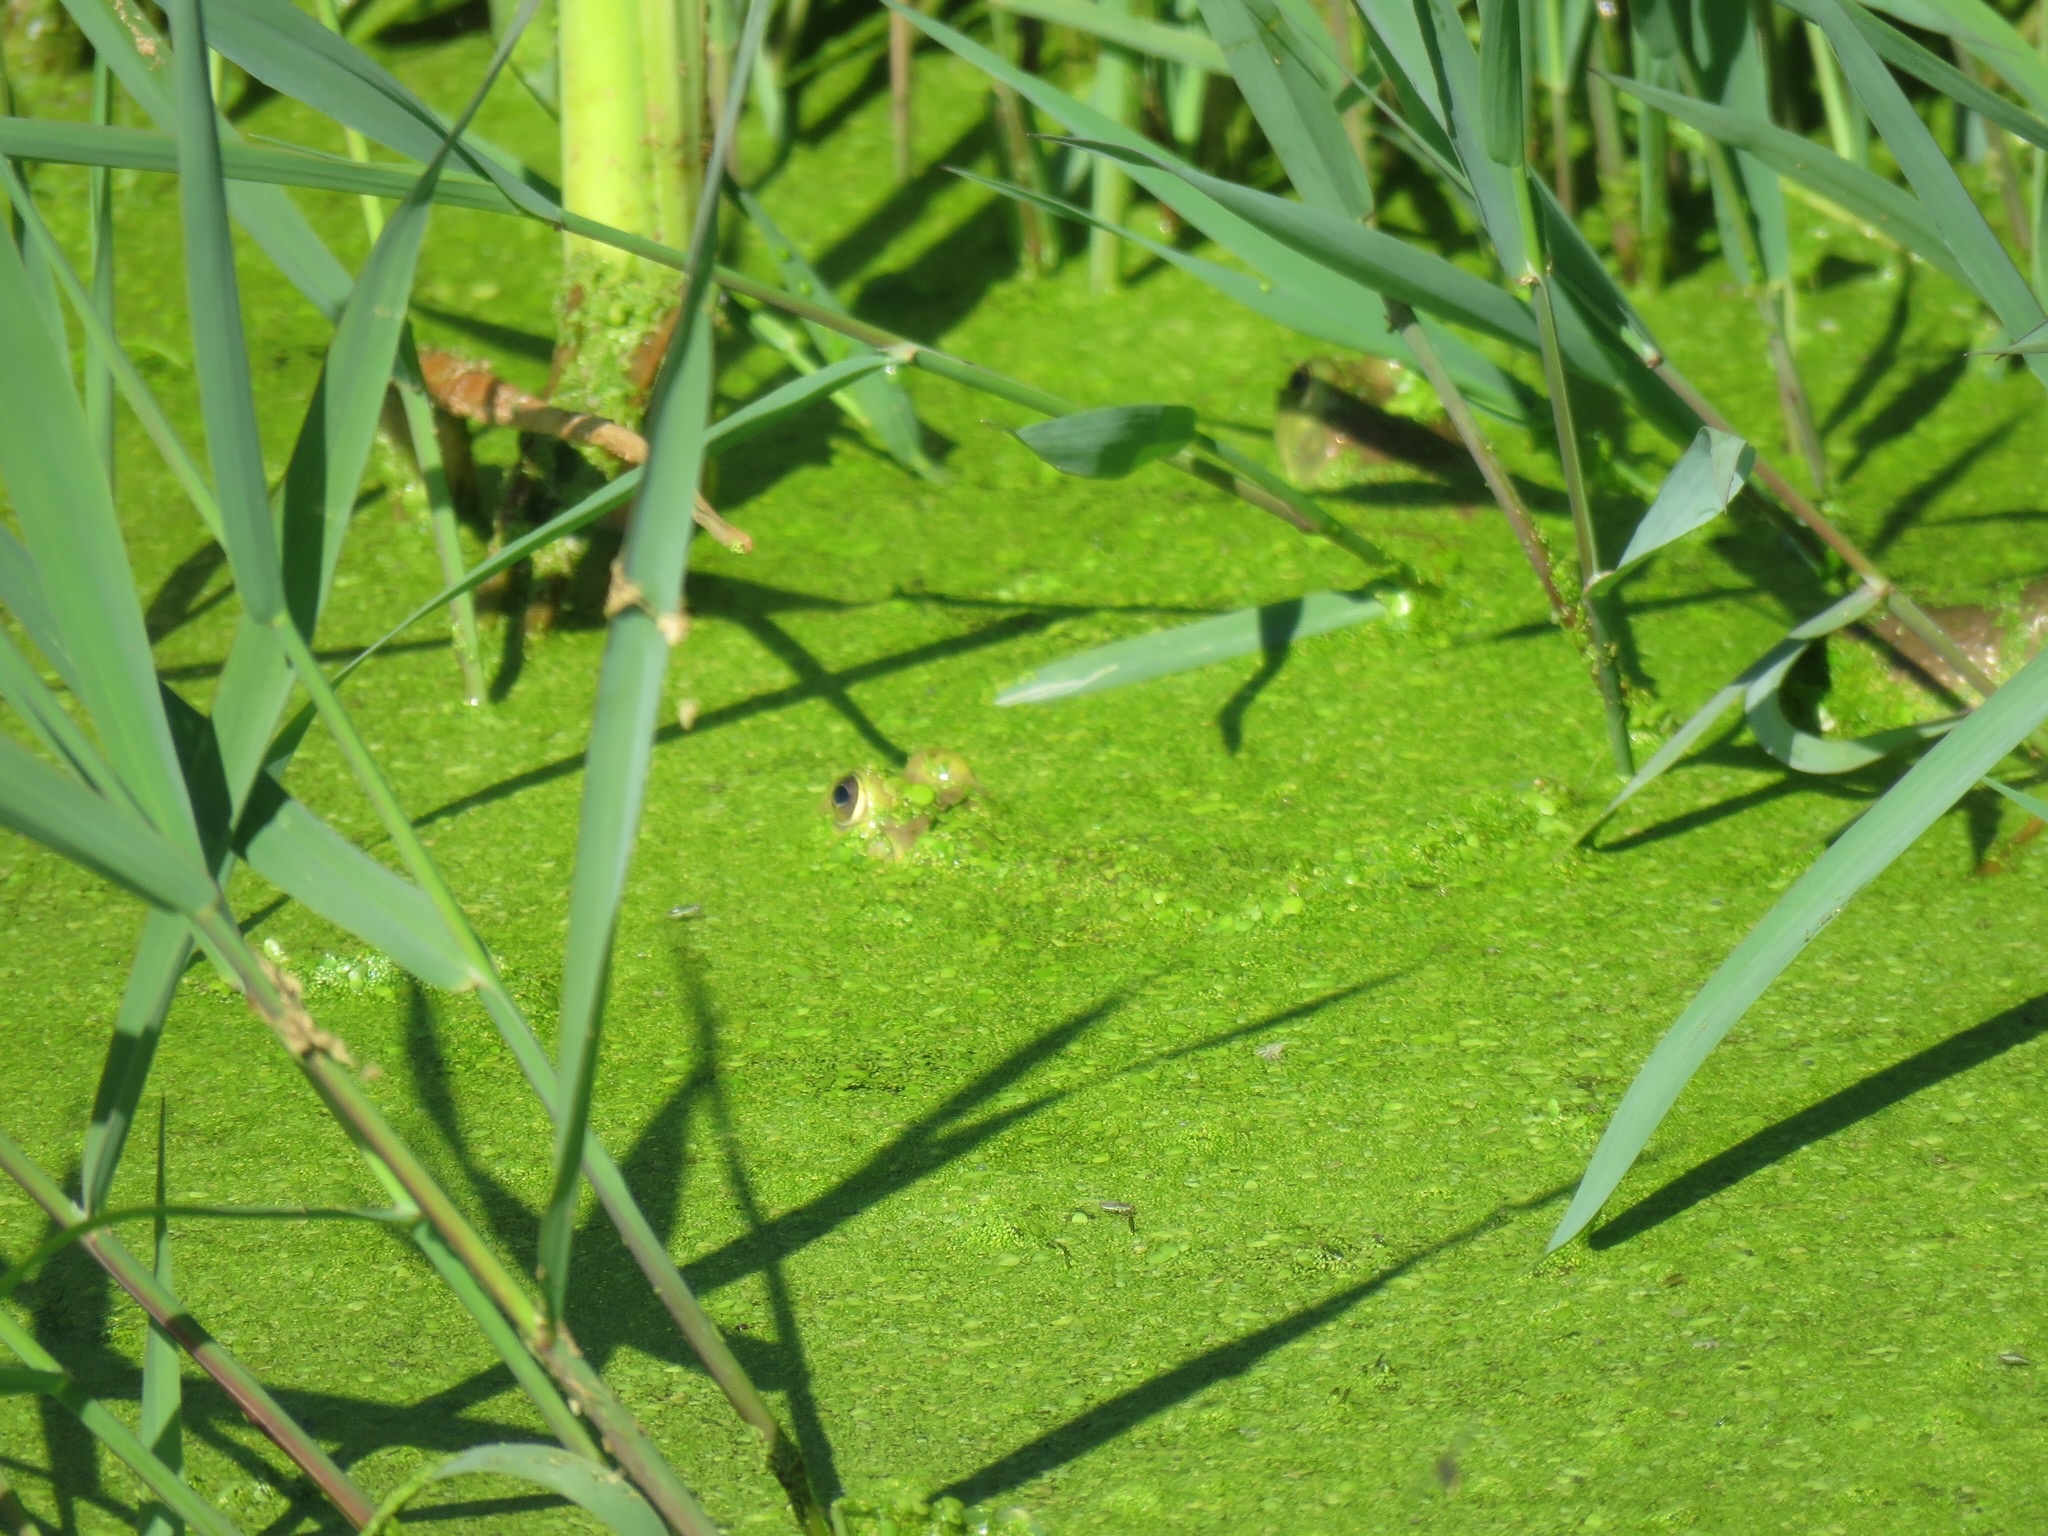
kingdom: Animalia
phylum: Chordata
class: Amphibia
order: Anura
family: Ranidae
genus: Lithobates
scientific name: Lithobates catesbeianus
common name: American bullfrog
